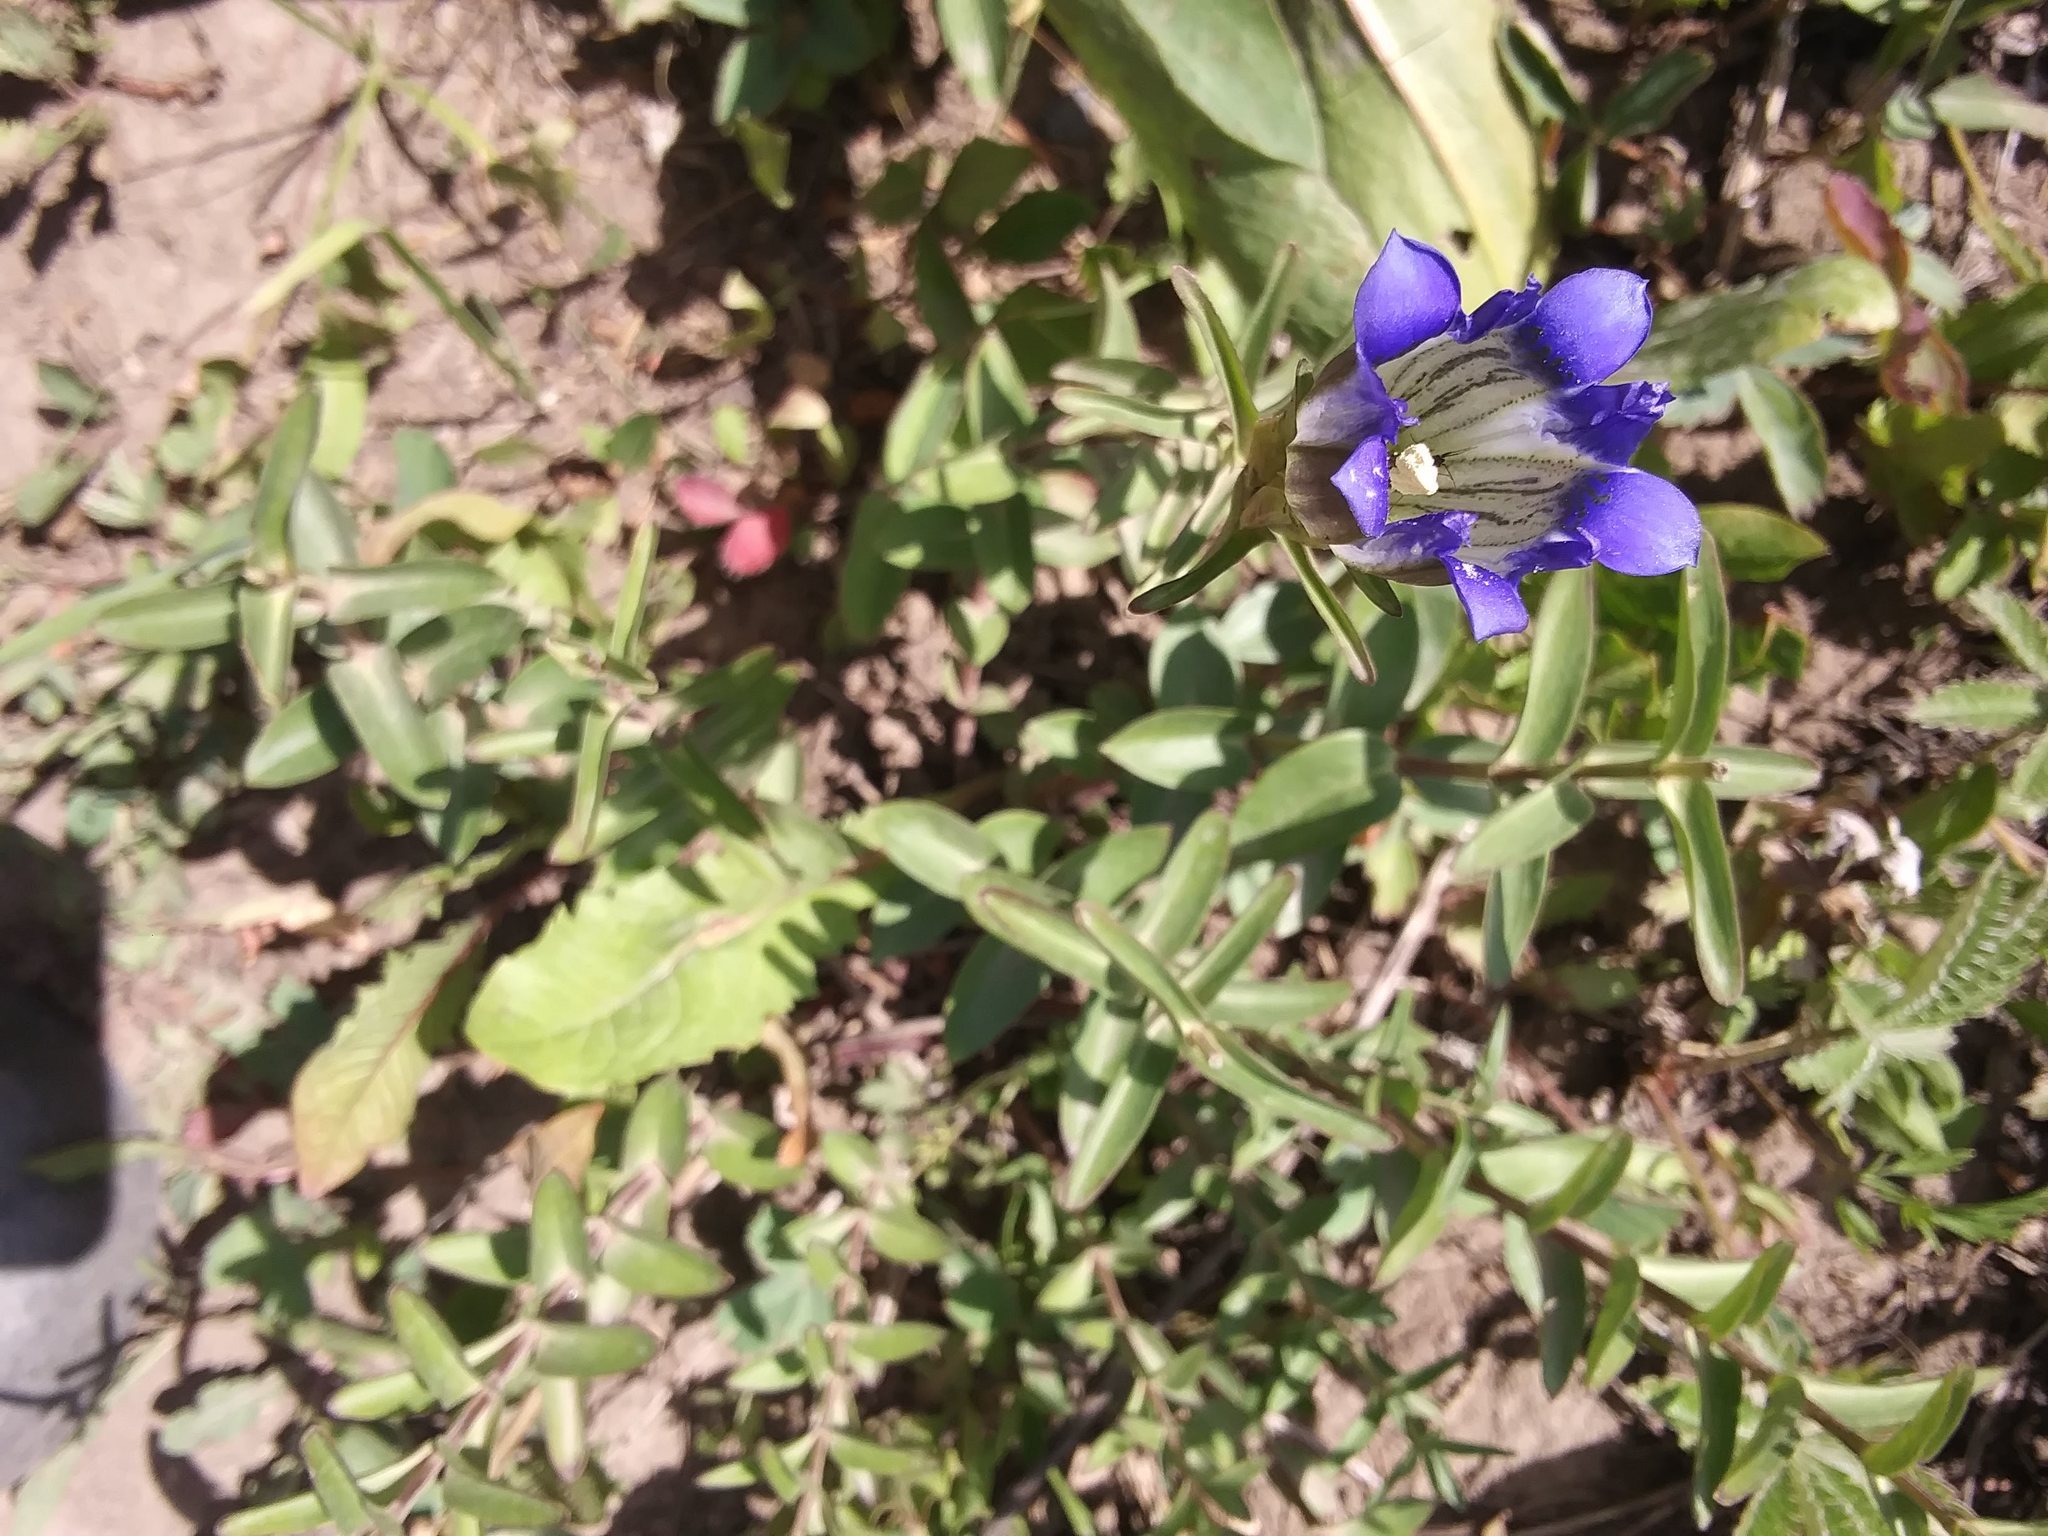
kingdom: Plantae
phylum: Tracheophyta
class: Magnoliopsida
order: Gentianales
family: Gentianaceae
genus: Gentiana
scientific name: Gentiana parryi
